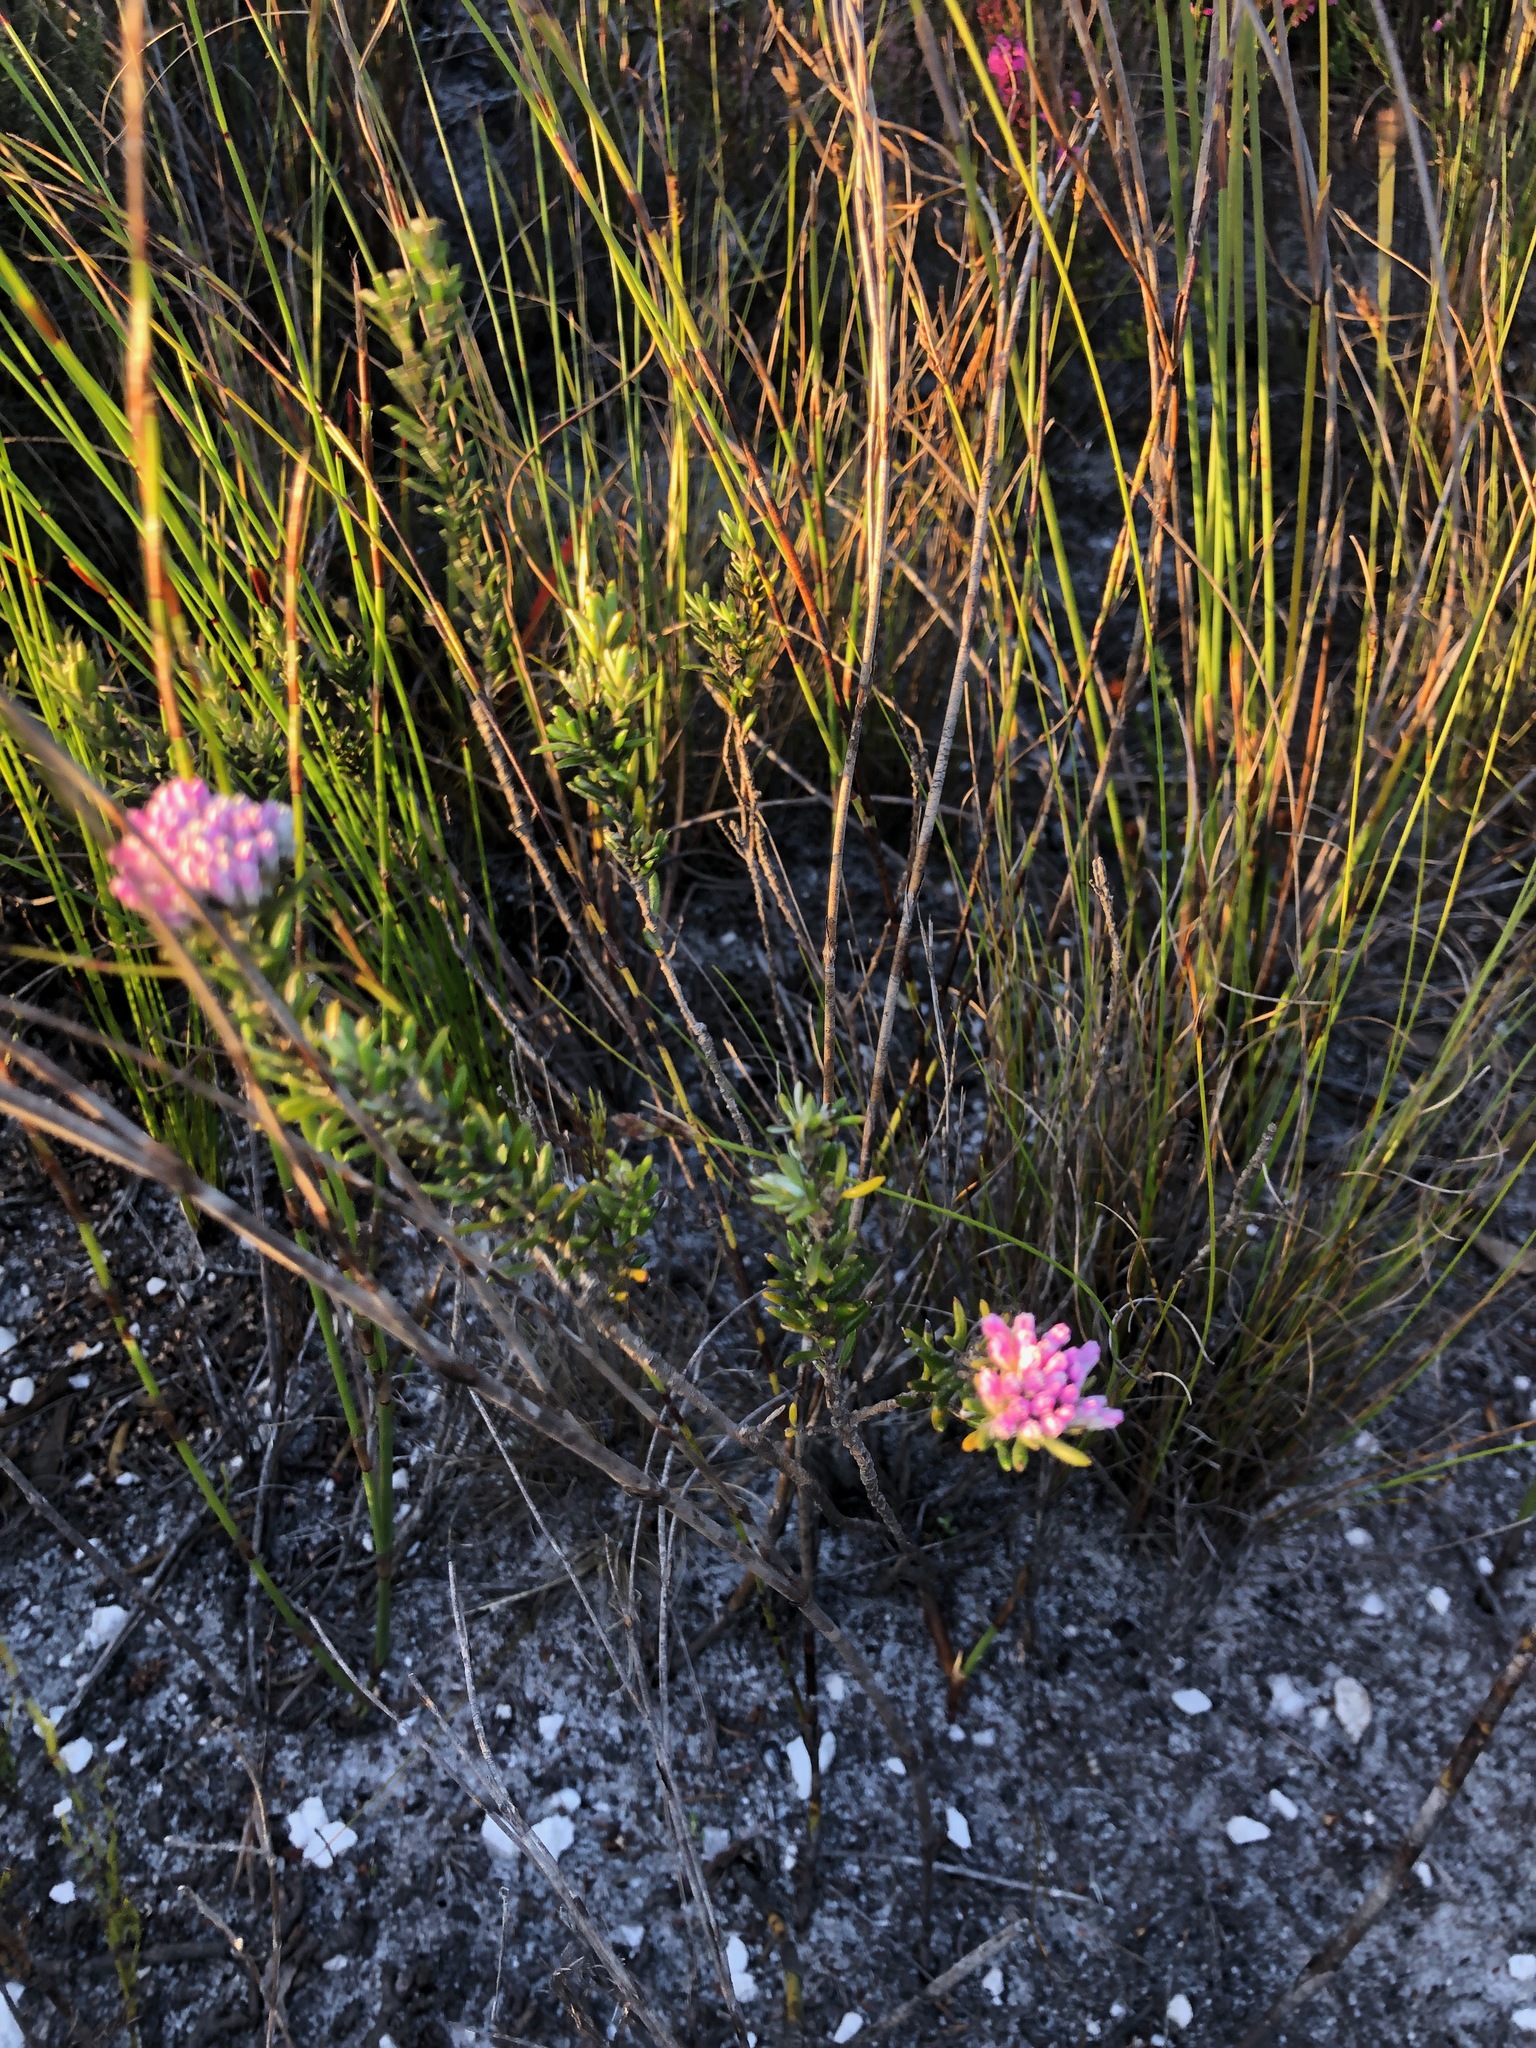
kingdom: Plantae
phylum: Tracheophyta
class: Magnoliopsida
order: Asterales
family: Asteraceae
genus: Metalasia
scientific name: Metalasia erubescens
